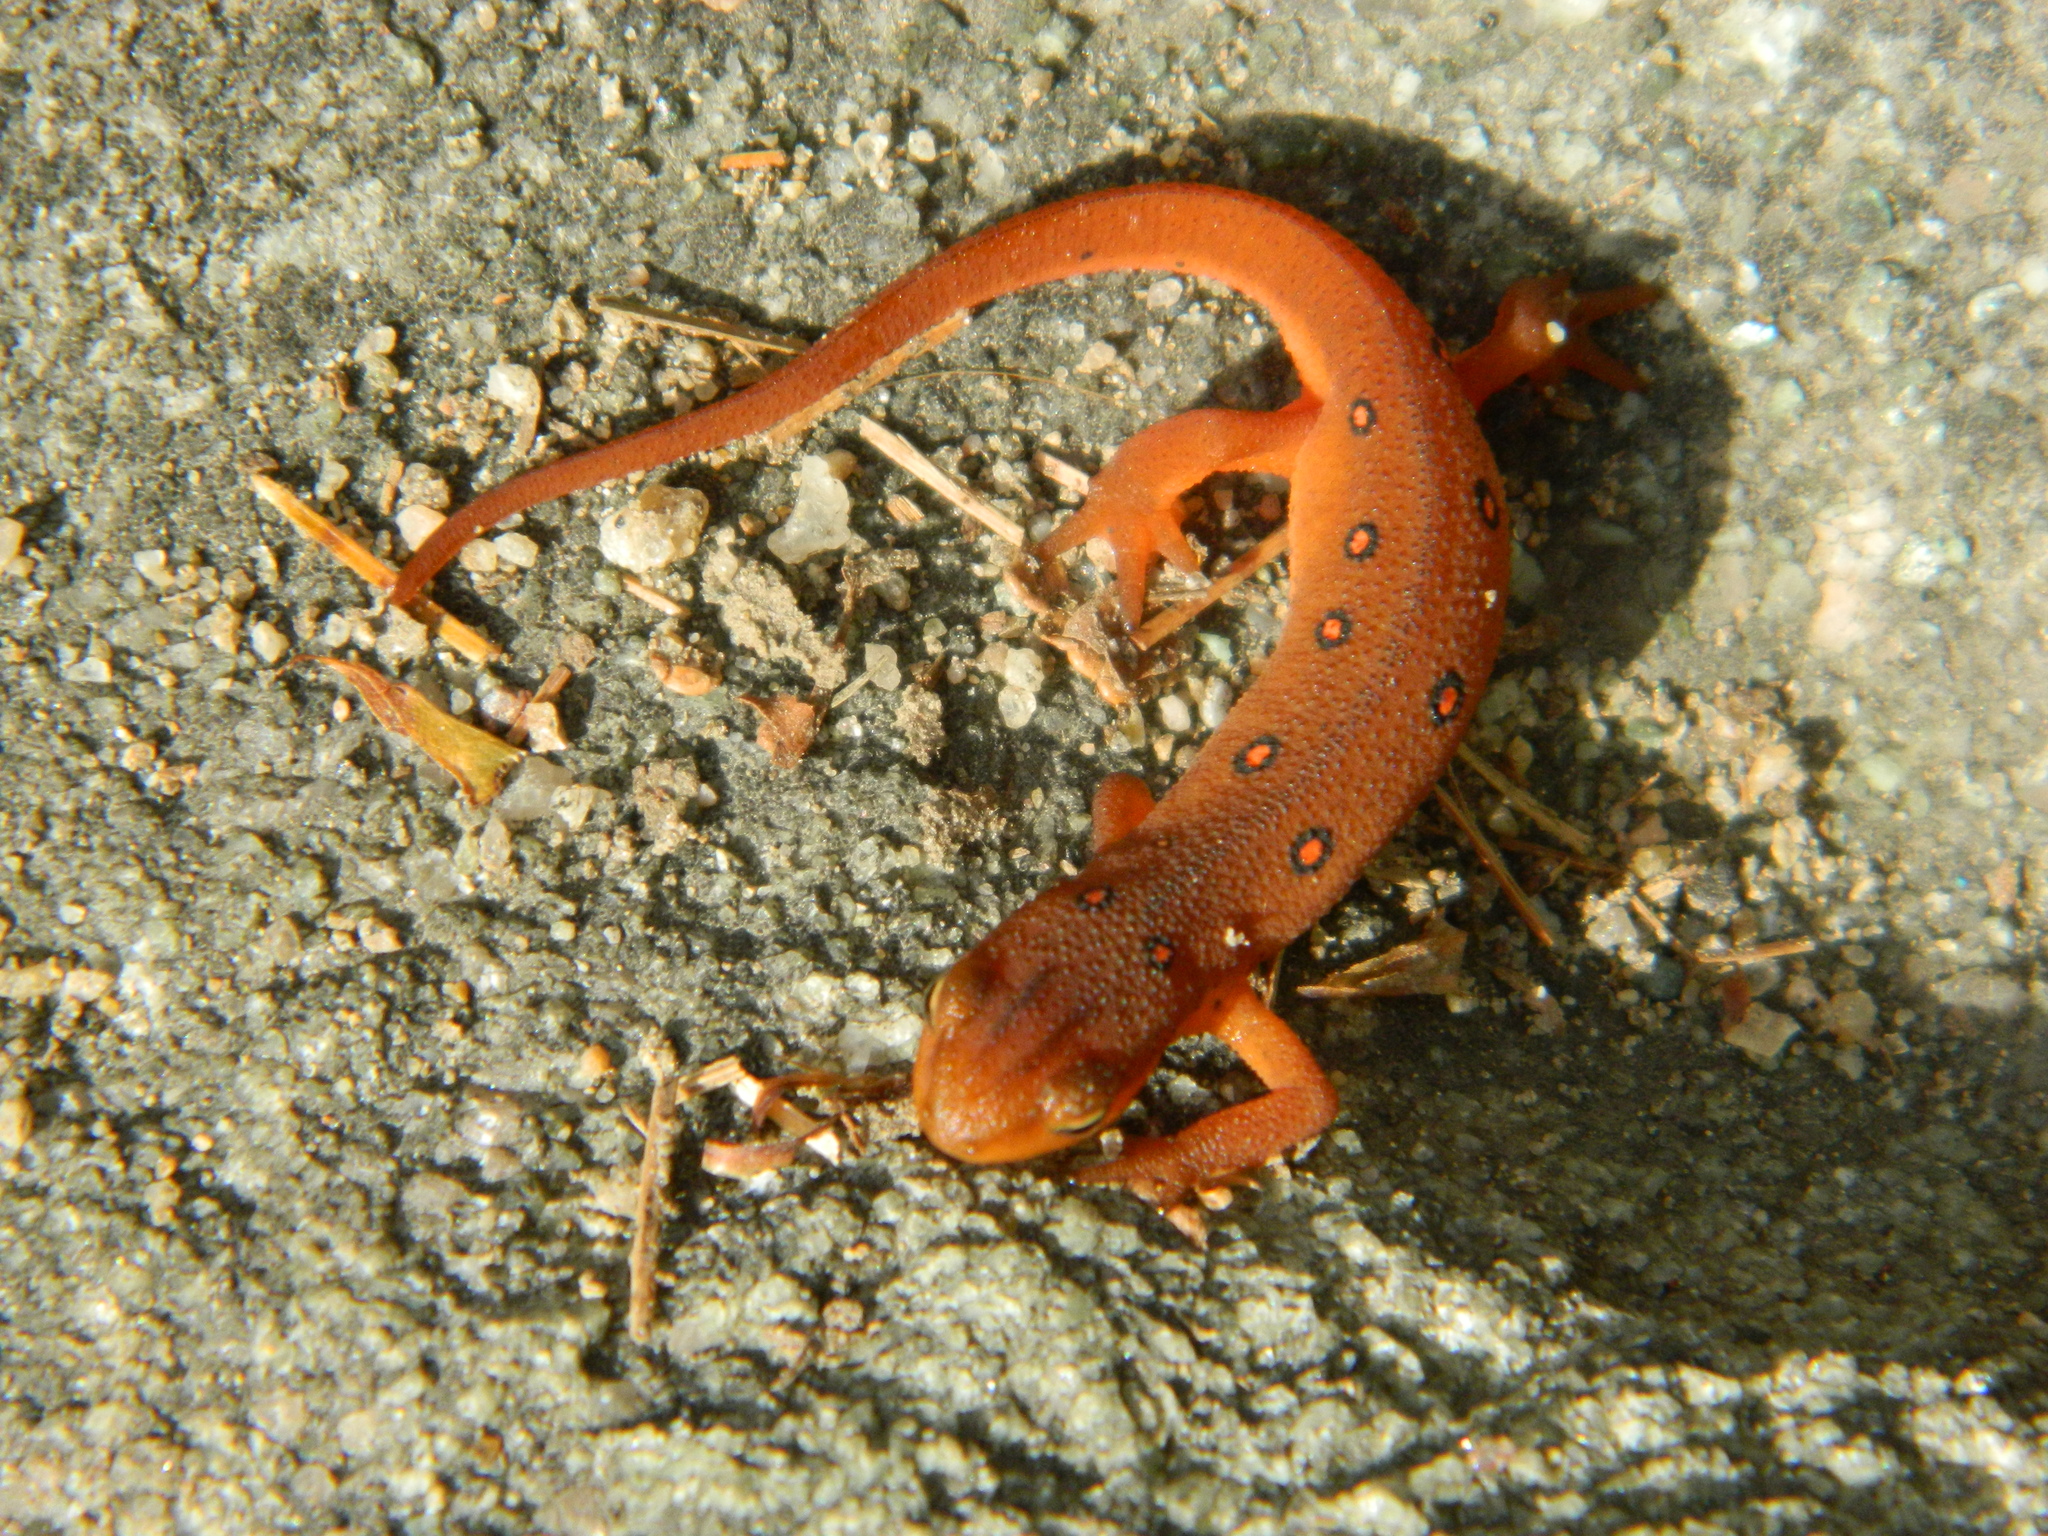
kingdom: Animalia
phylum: Chordata
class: Amphibia
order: Caudata
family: Salamandridae
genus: Notophthalmus
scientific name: Notophthalmus viridescens
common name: Eastern newt
